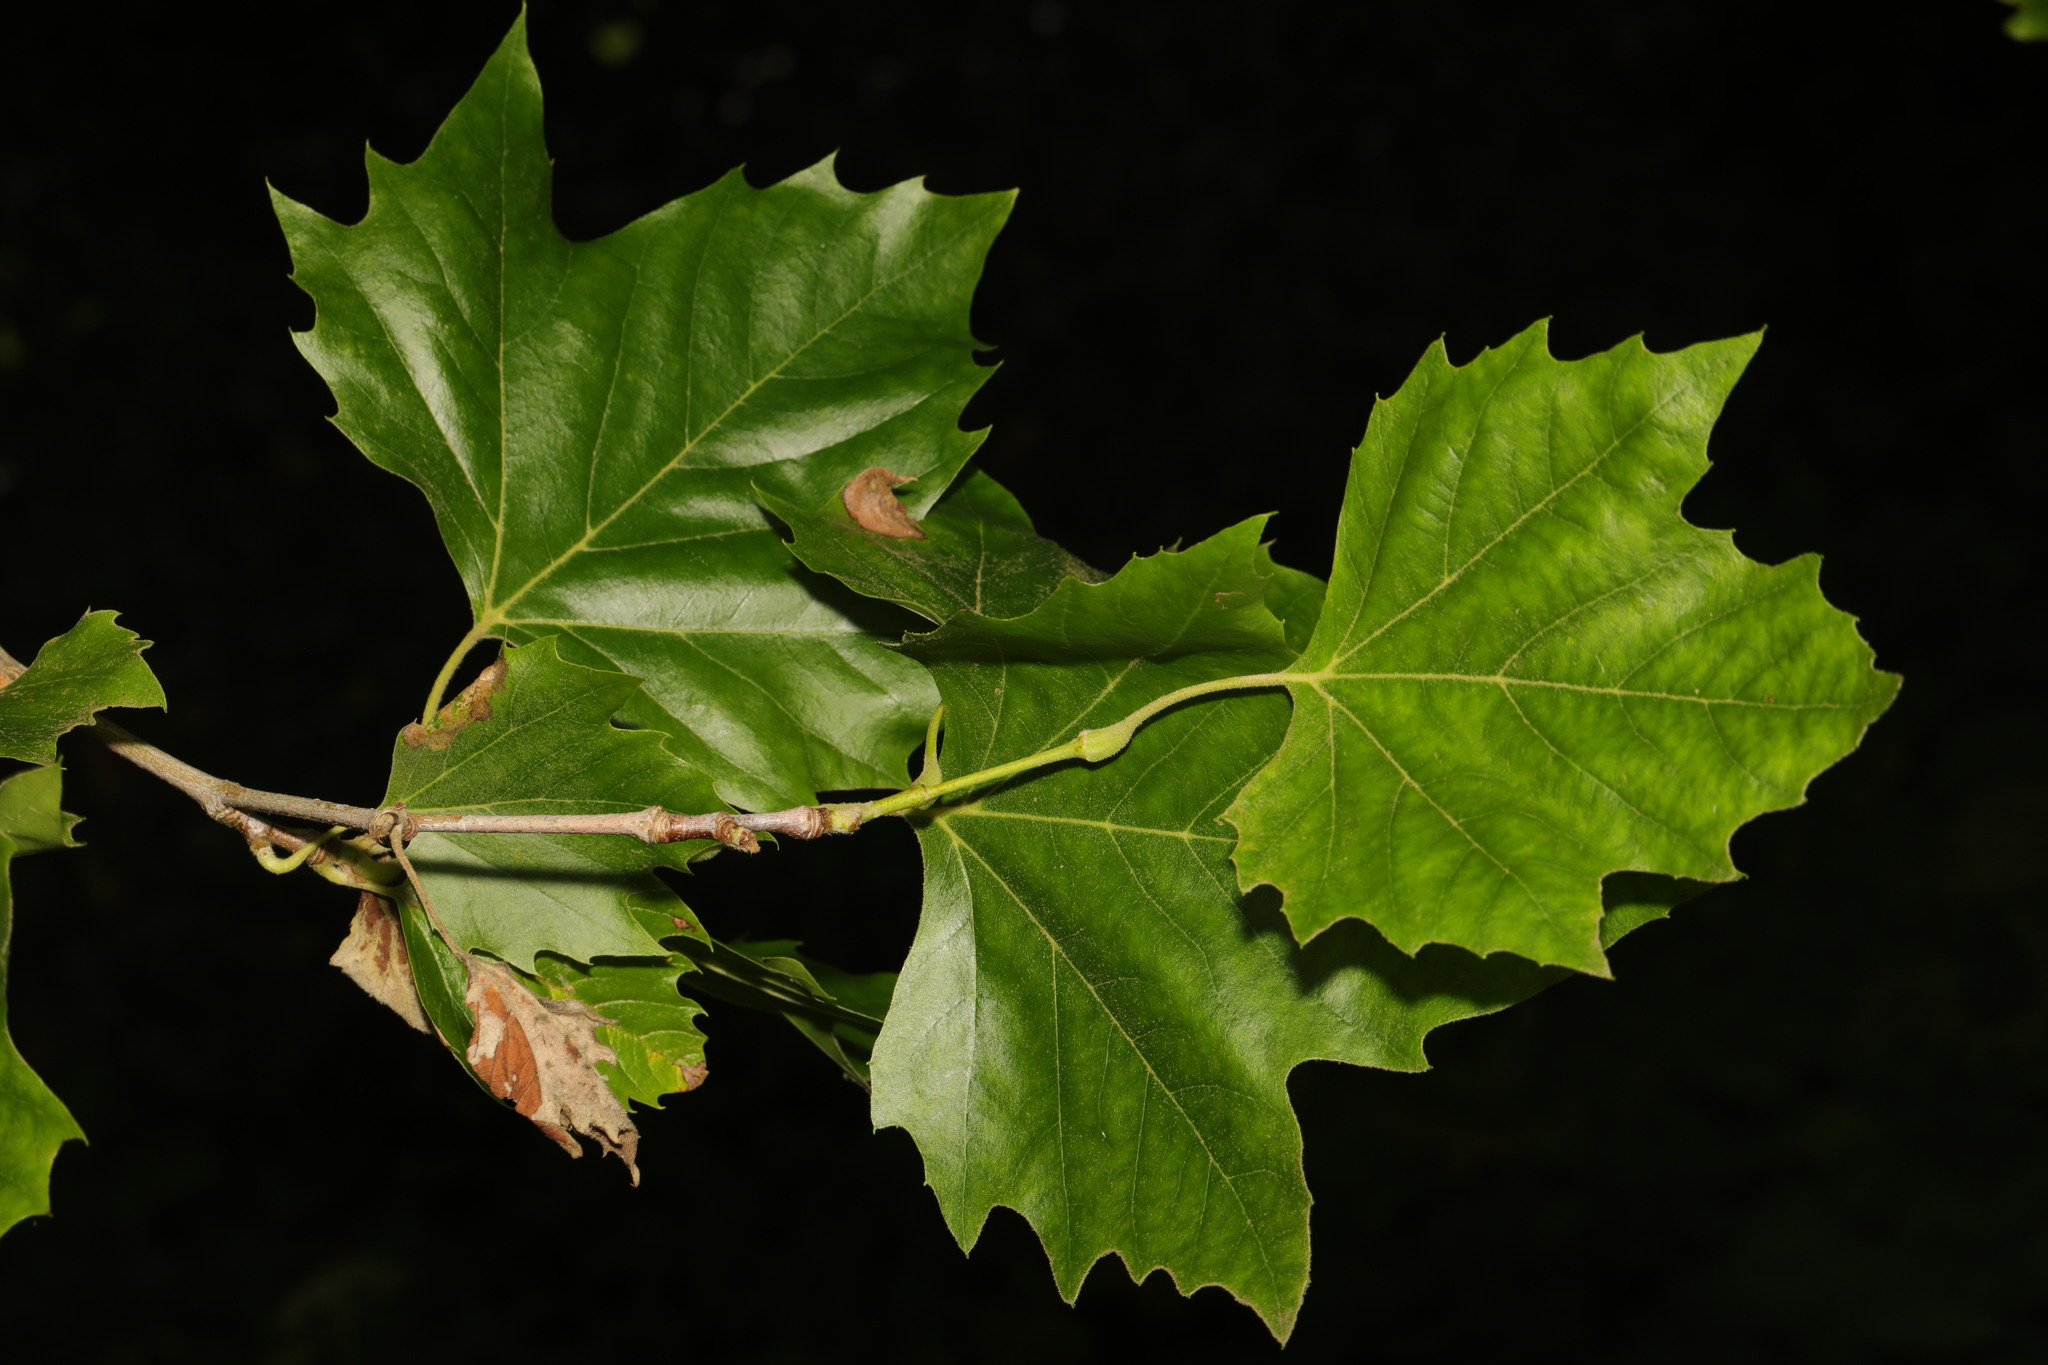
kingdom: Plantae
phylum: Tracheophyta
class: Magnoliopsida
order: Proteales
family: Platanaceae
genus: Platanus
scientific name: Platanus hispanica
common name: London plane
